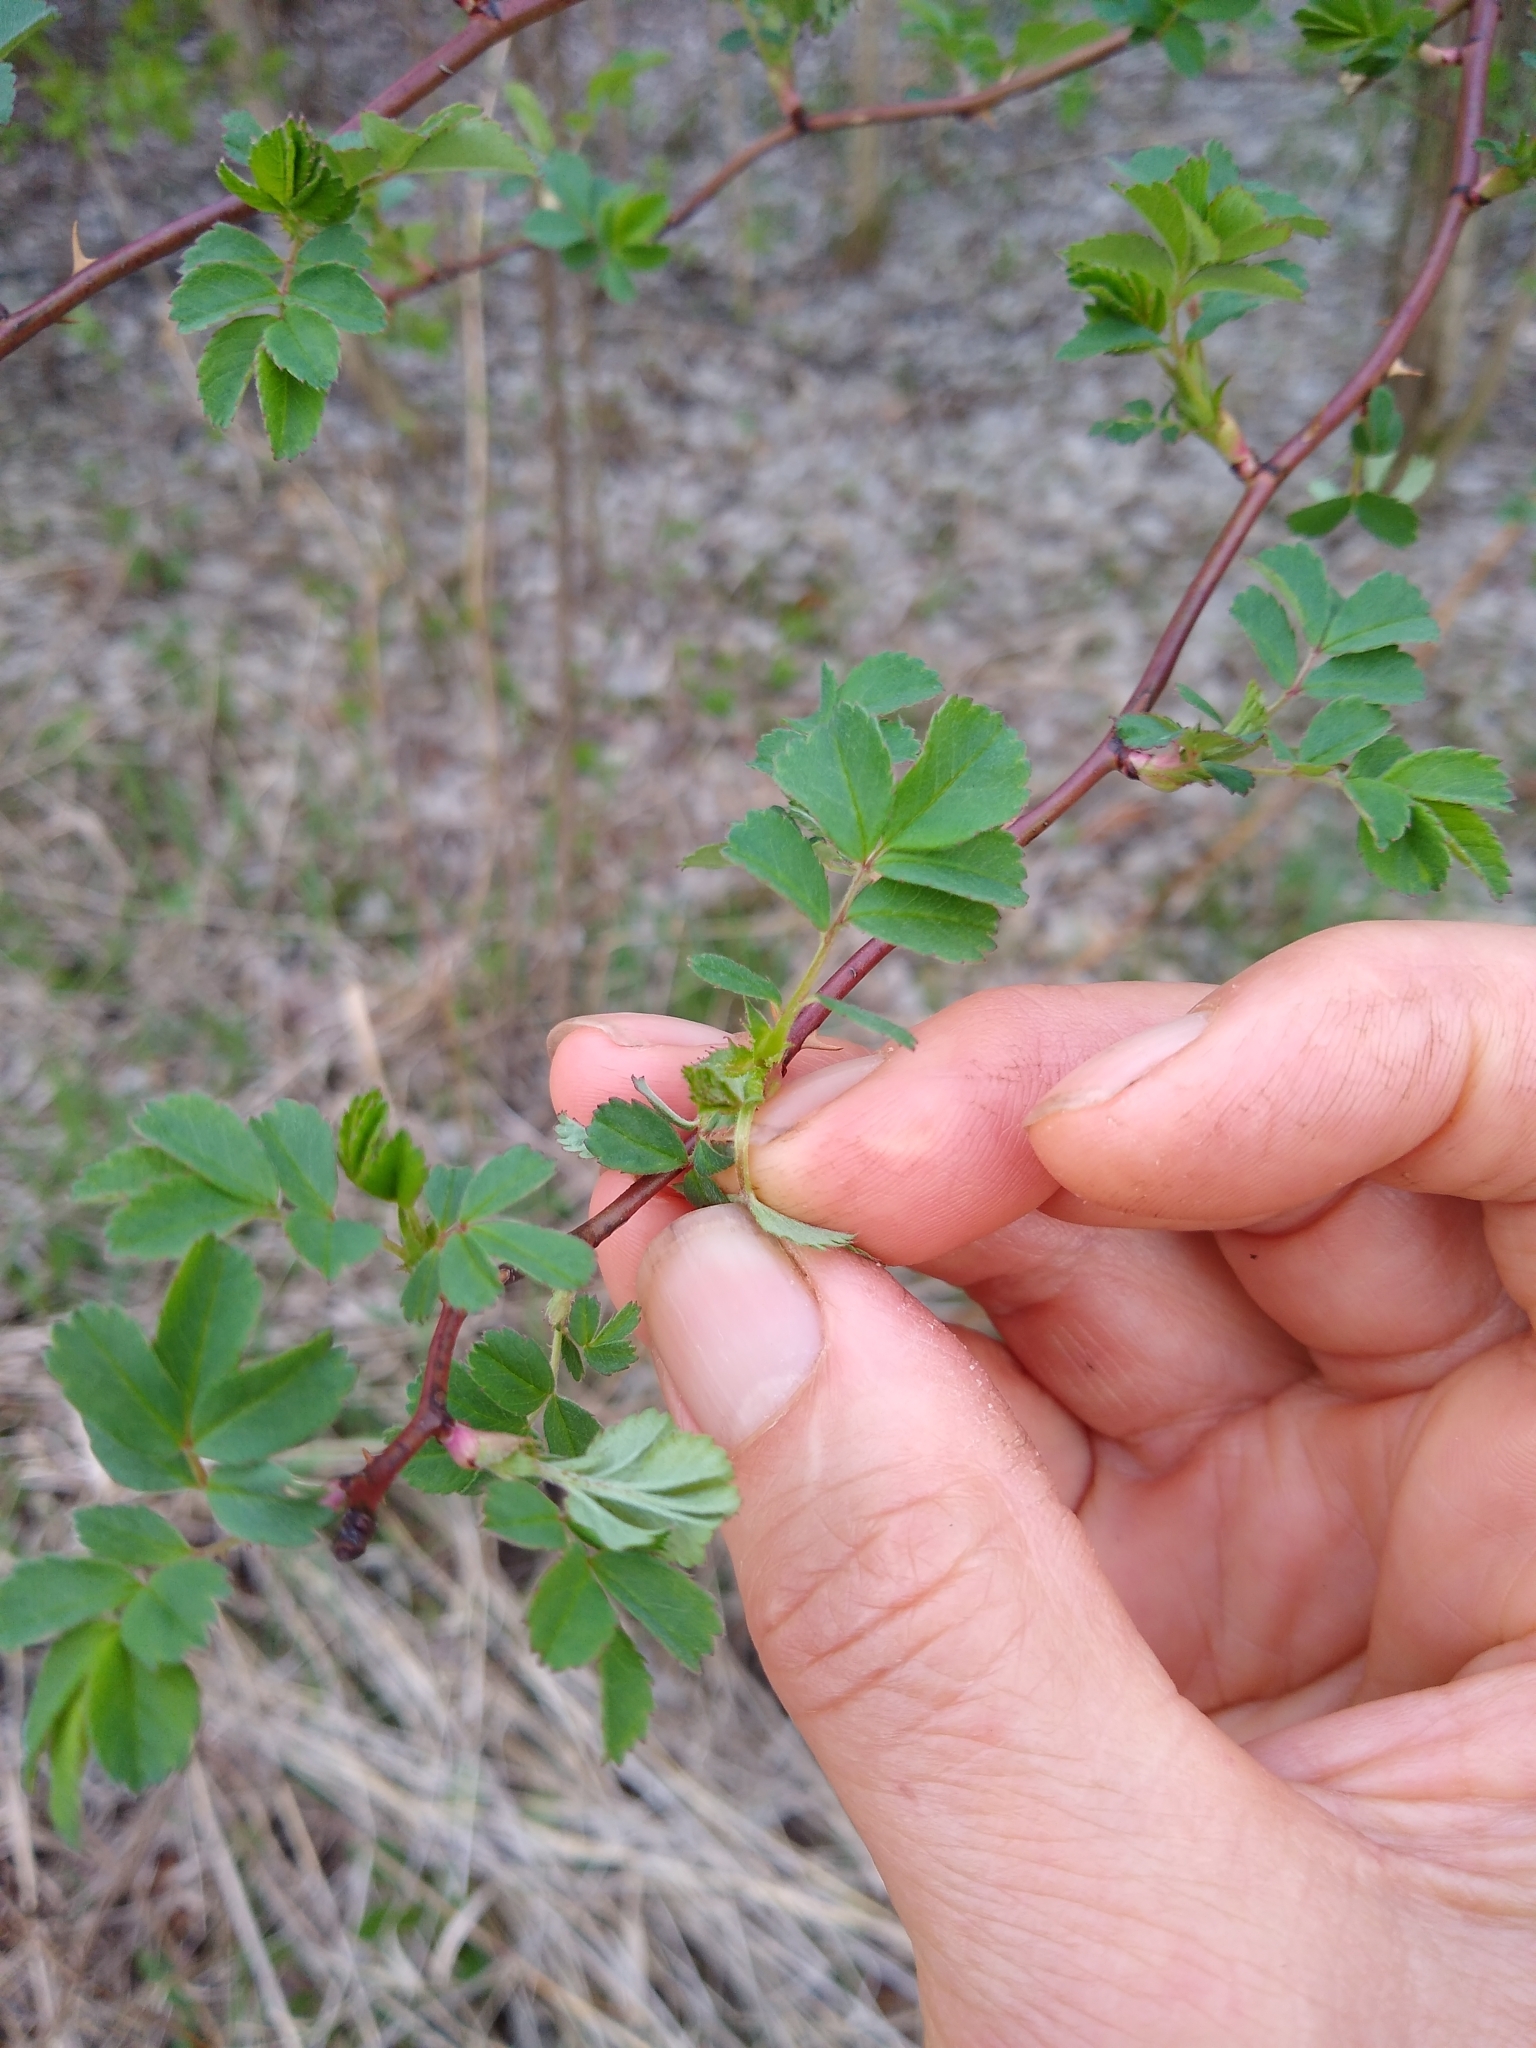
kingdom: Plantae
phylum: Tracheophyta
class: Magnoliopsida
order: Rosales
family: Rosaceae
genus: Rosa
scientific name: Rosa multiflora
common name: Multiflora rose
